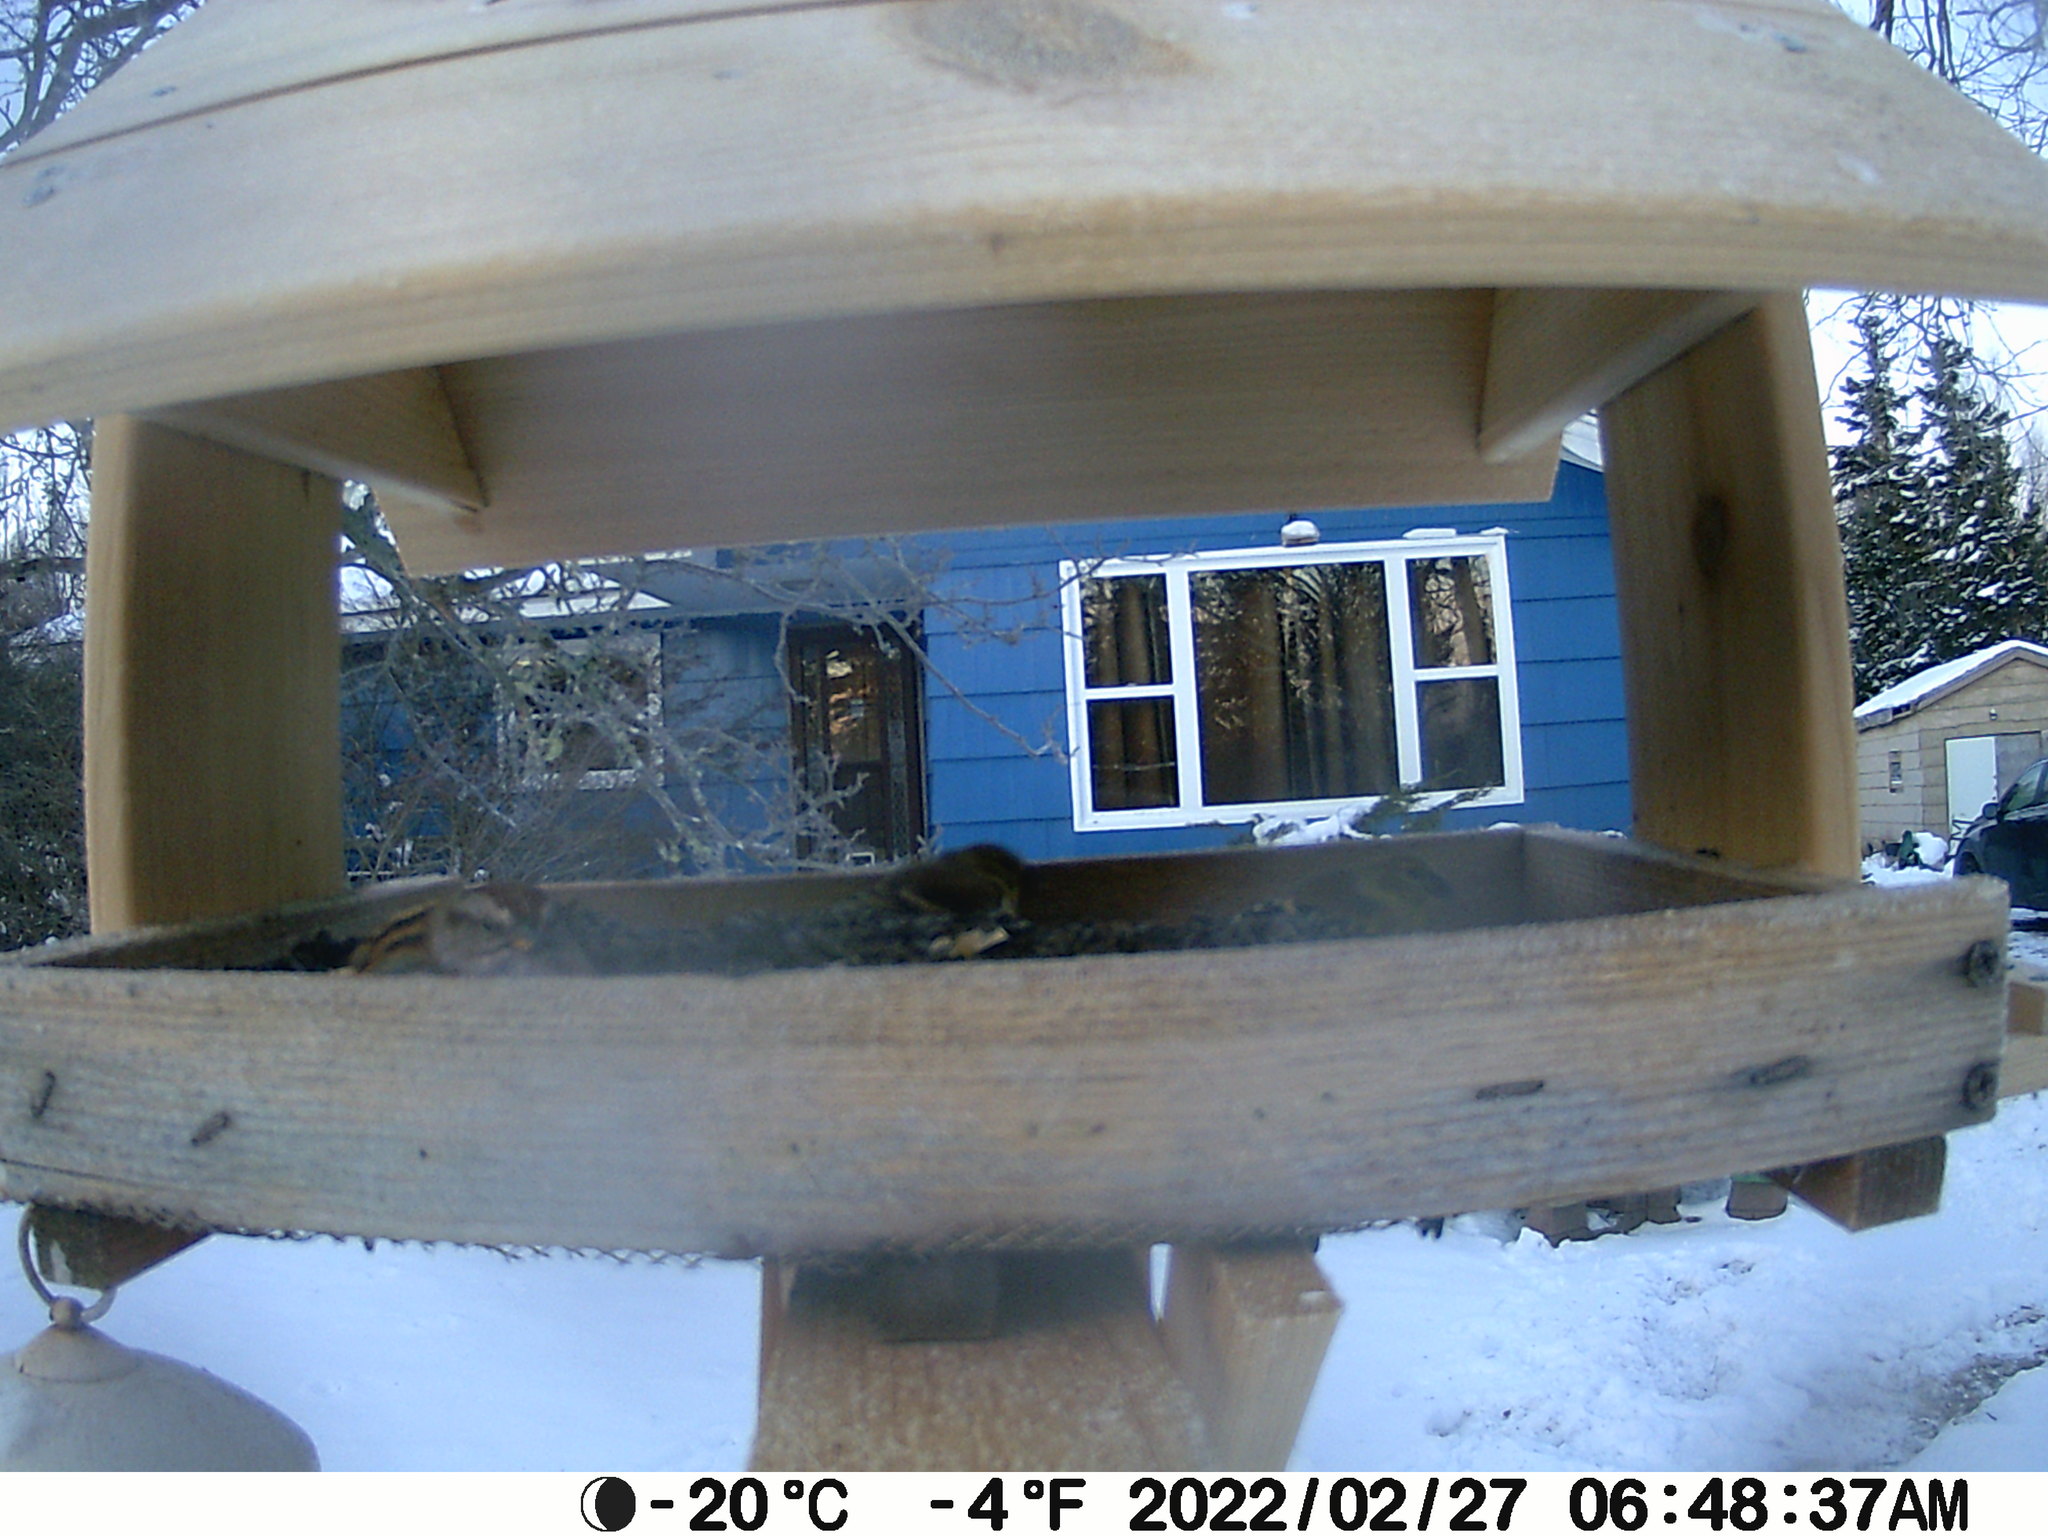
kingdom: Animalia
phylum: Chordata
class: Aves
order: Passeriformes
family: Passerellidae
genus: Spizelloides
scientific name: Spizelloides arborea
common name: American tree sparrow
